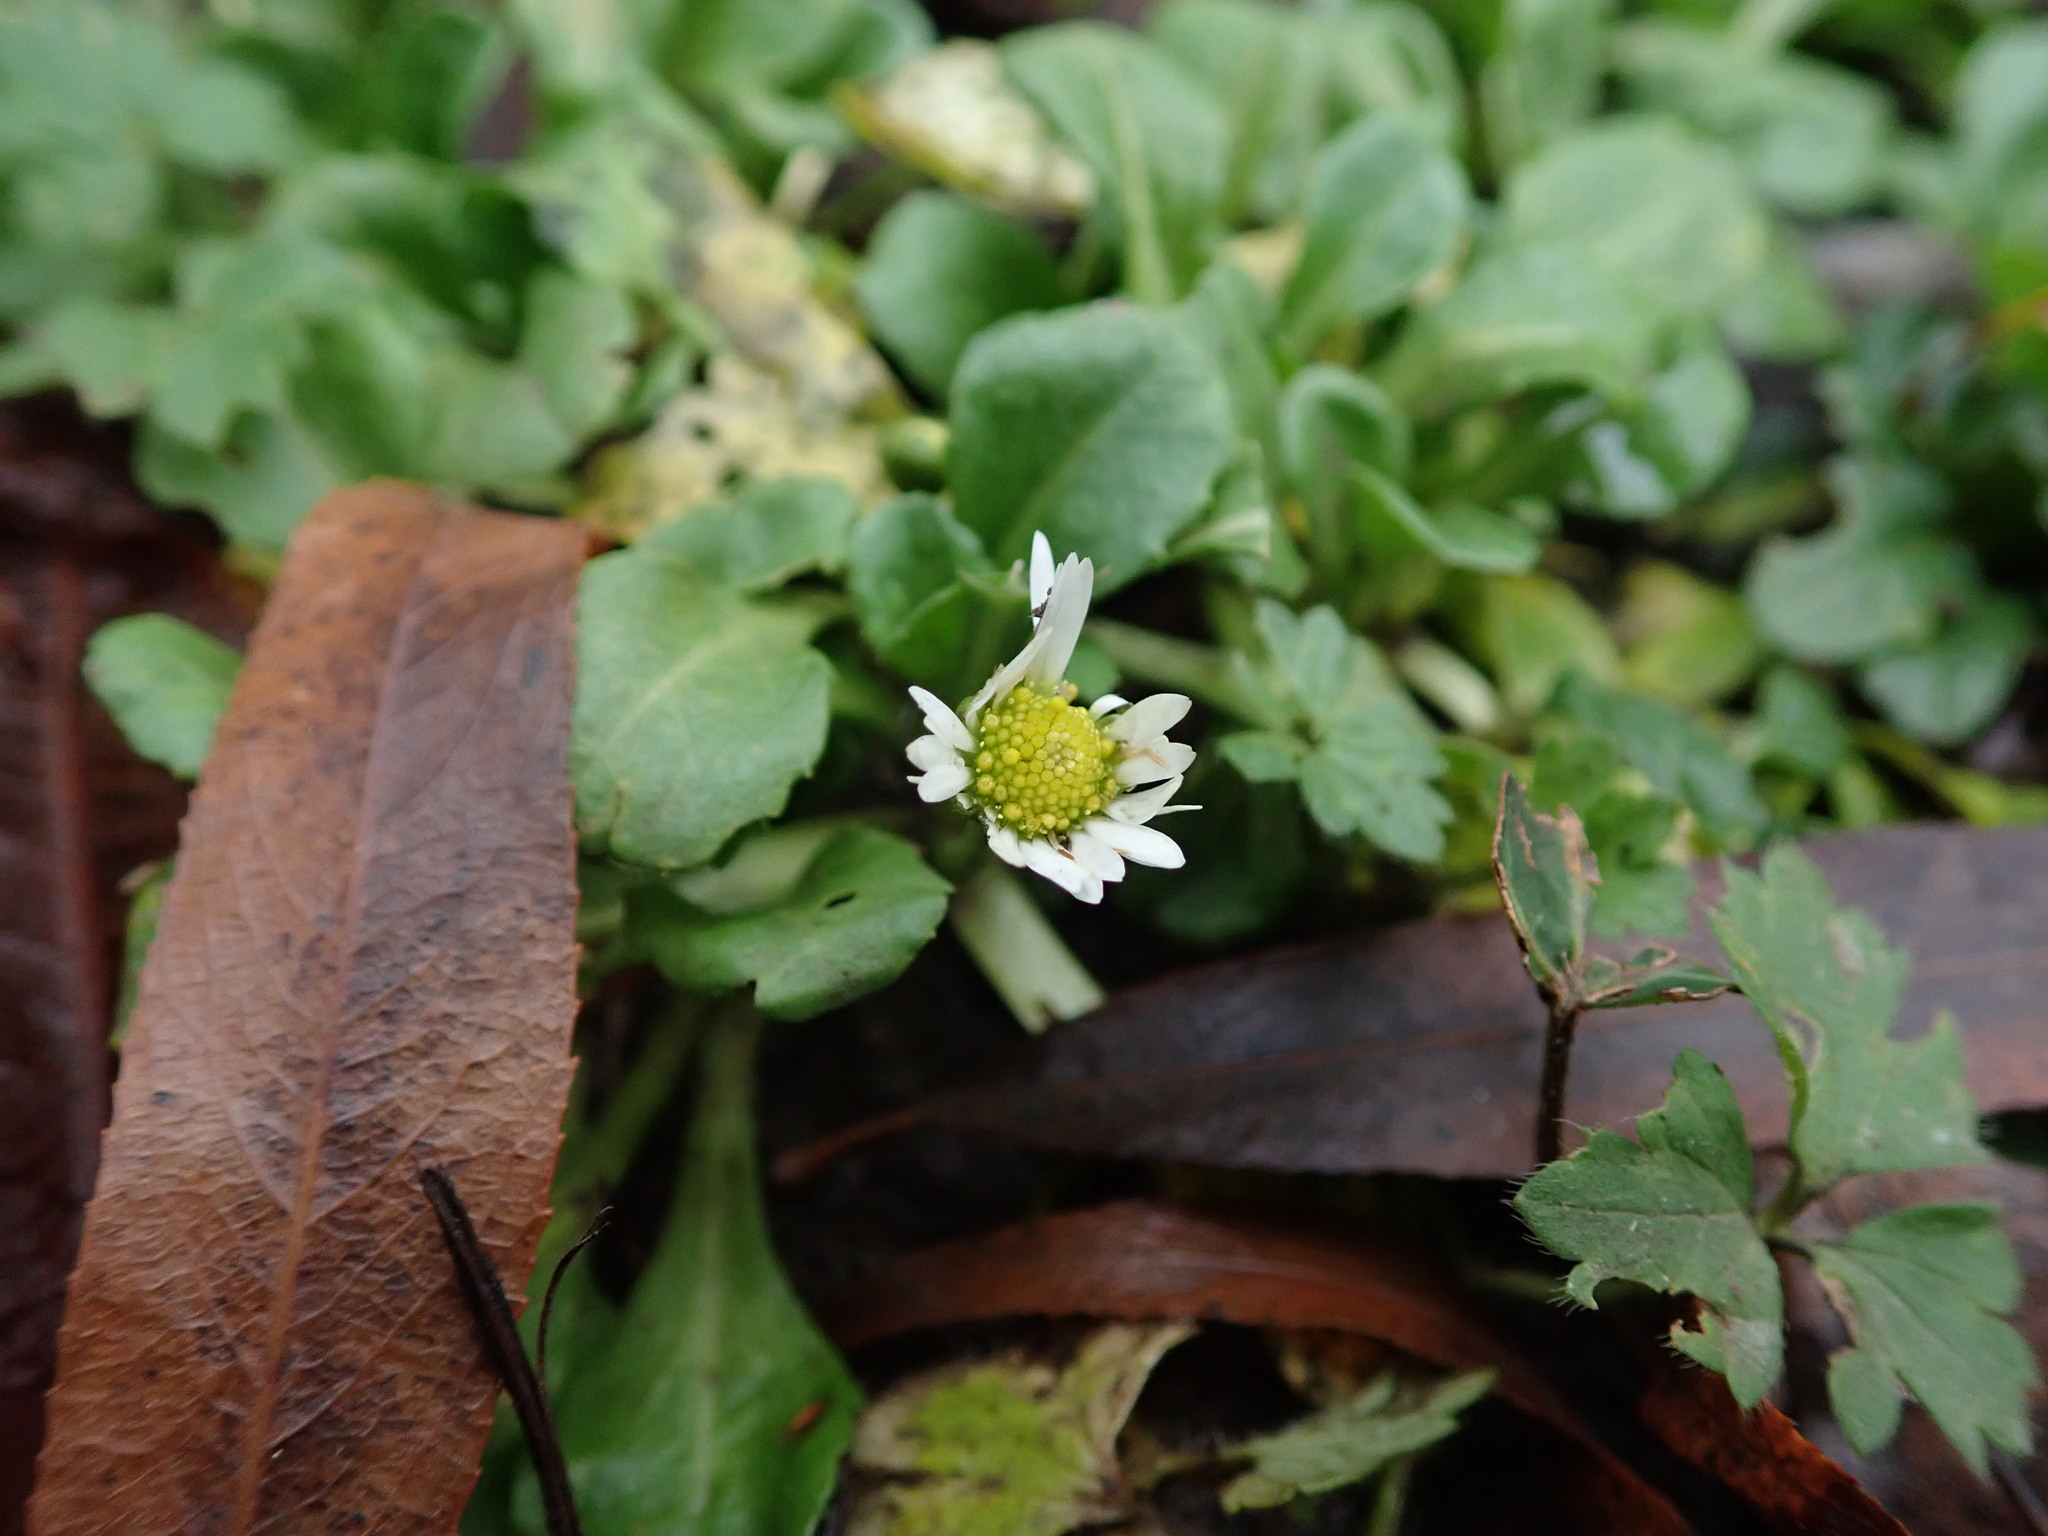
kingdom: Plantae
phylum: Tracheophyta
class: Magnoliopsida
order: Asterales
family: Asteraceae
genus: Bellis
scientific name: Bellis perennis
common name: Lawndaisy
